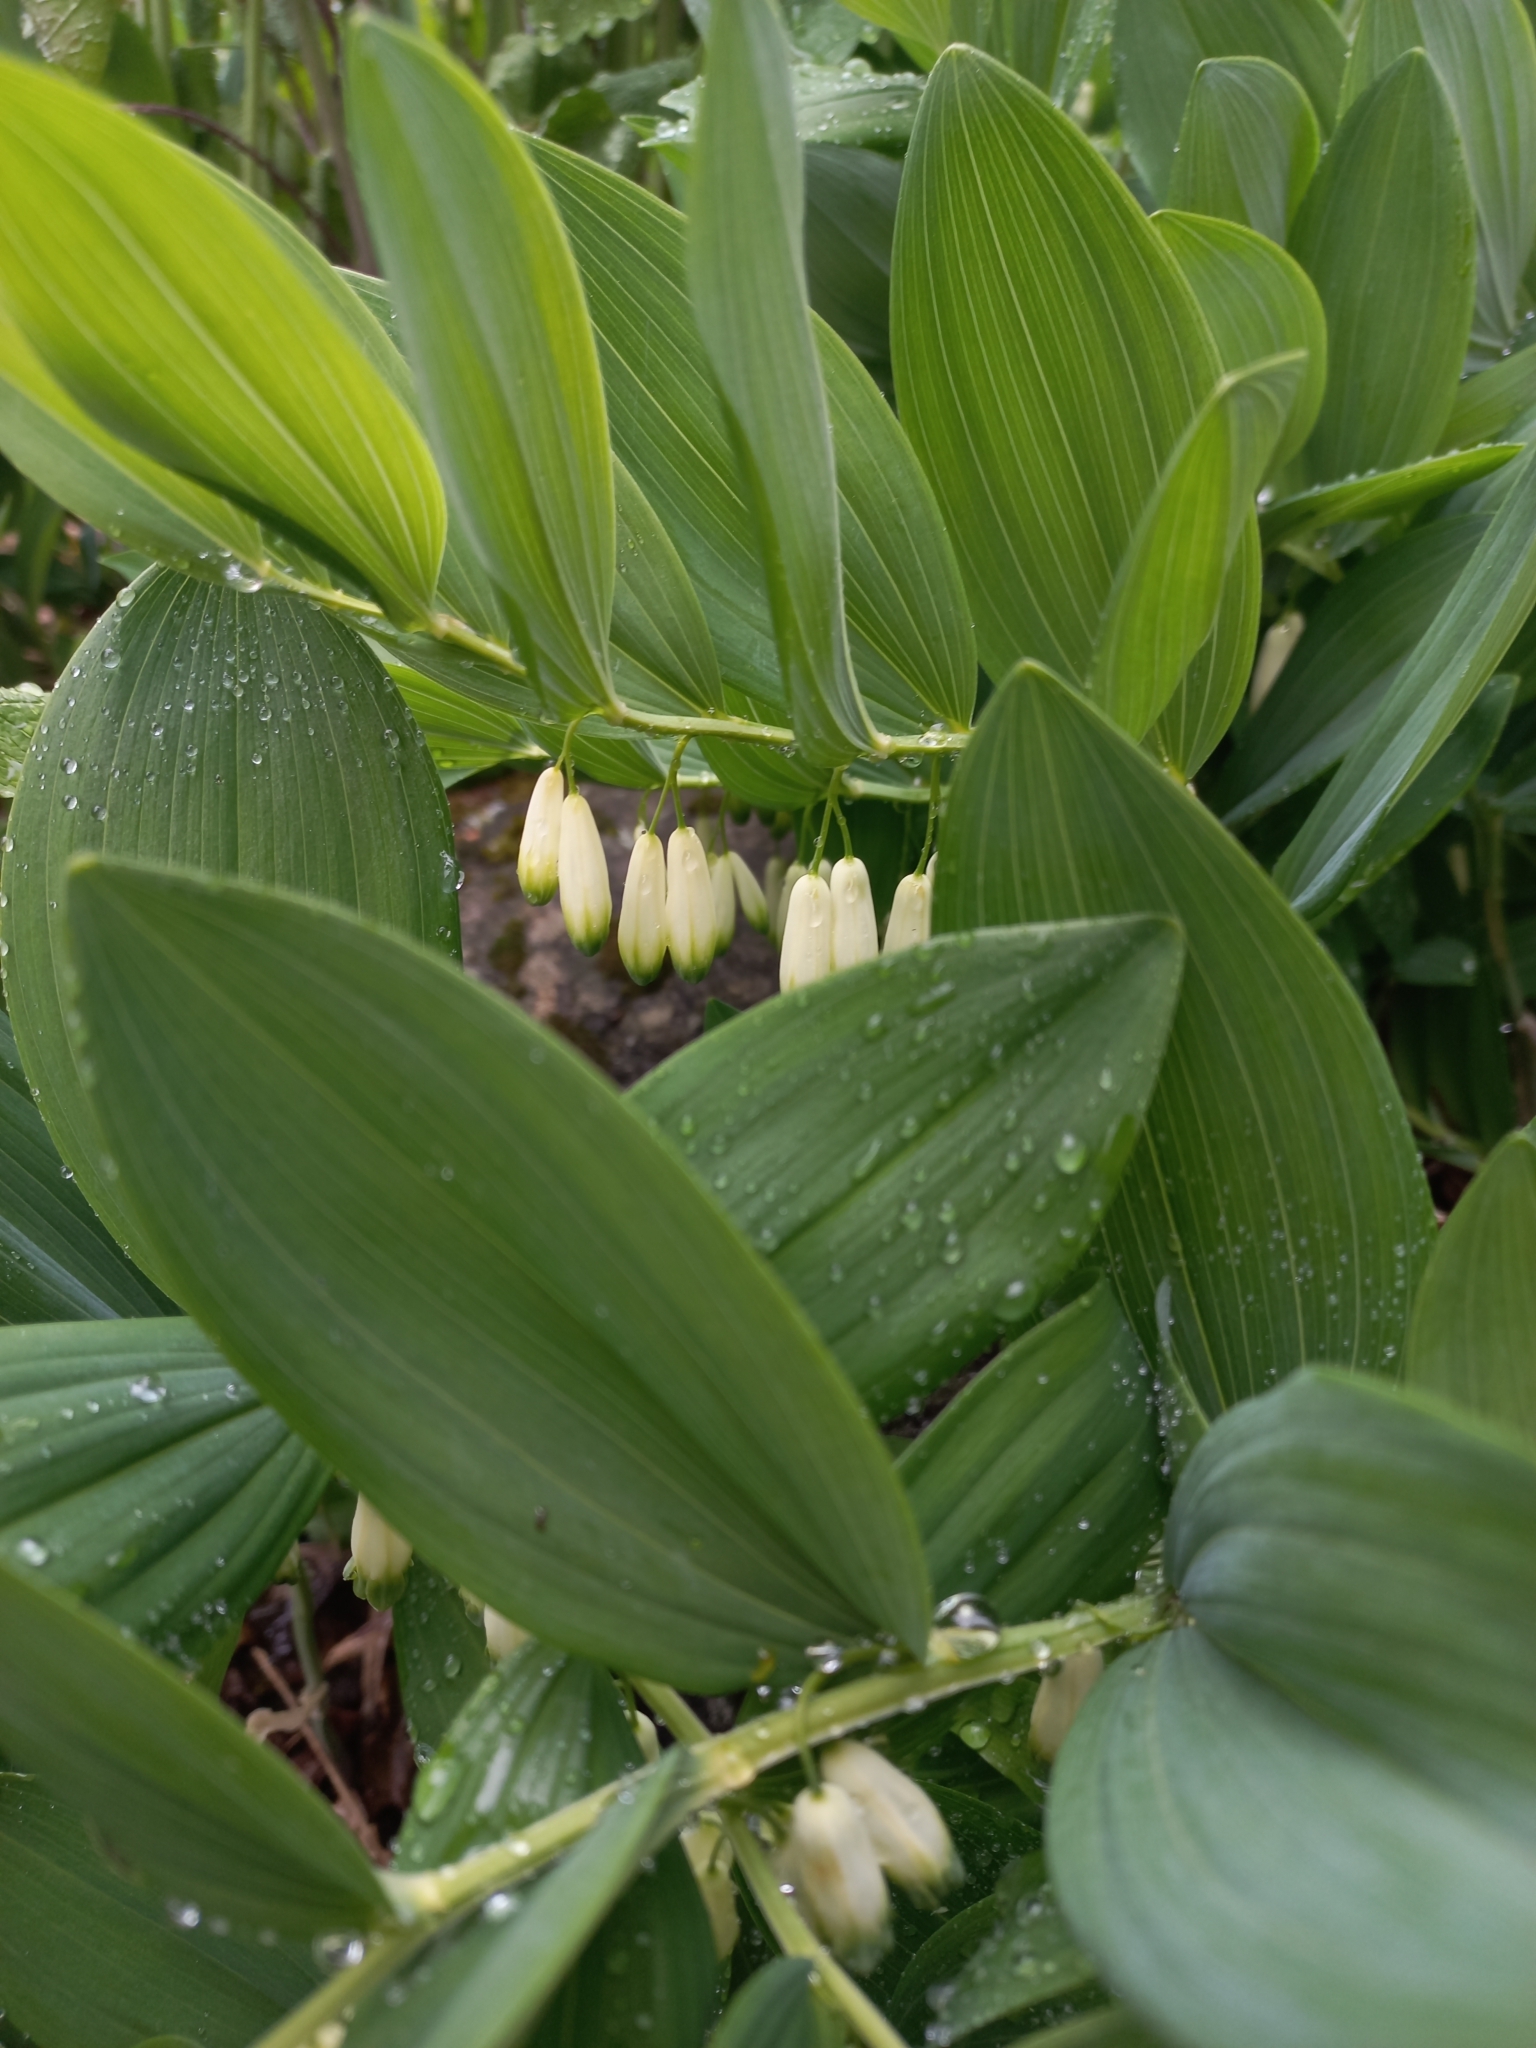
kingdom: Plantae
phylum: Tracheophyta
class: Liliopsida
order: Asparagales
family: Asparagaceae
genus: Polygonatum
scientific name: Polygonatum odoratum
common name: Angular solomon's-seal
